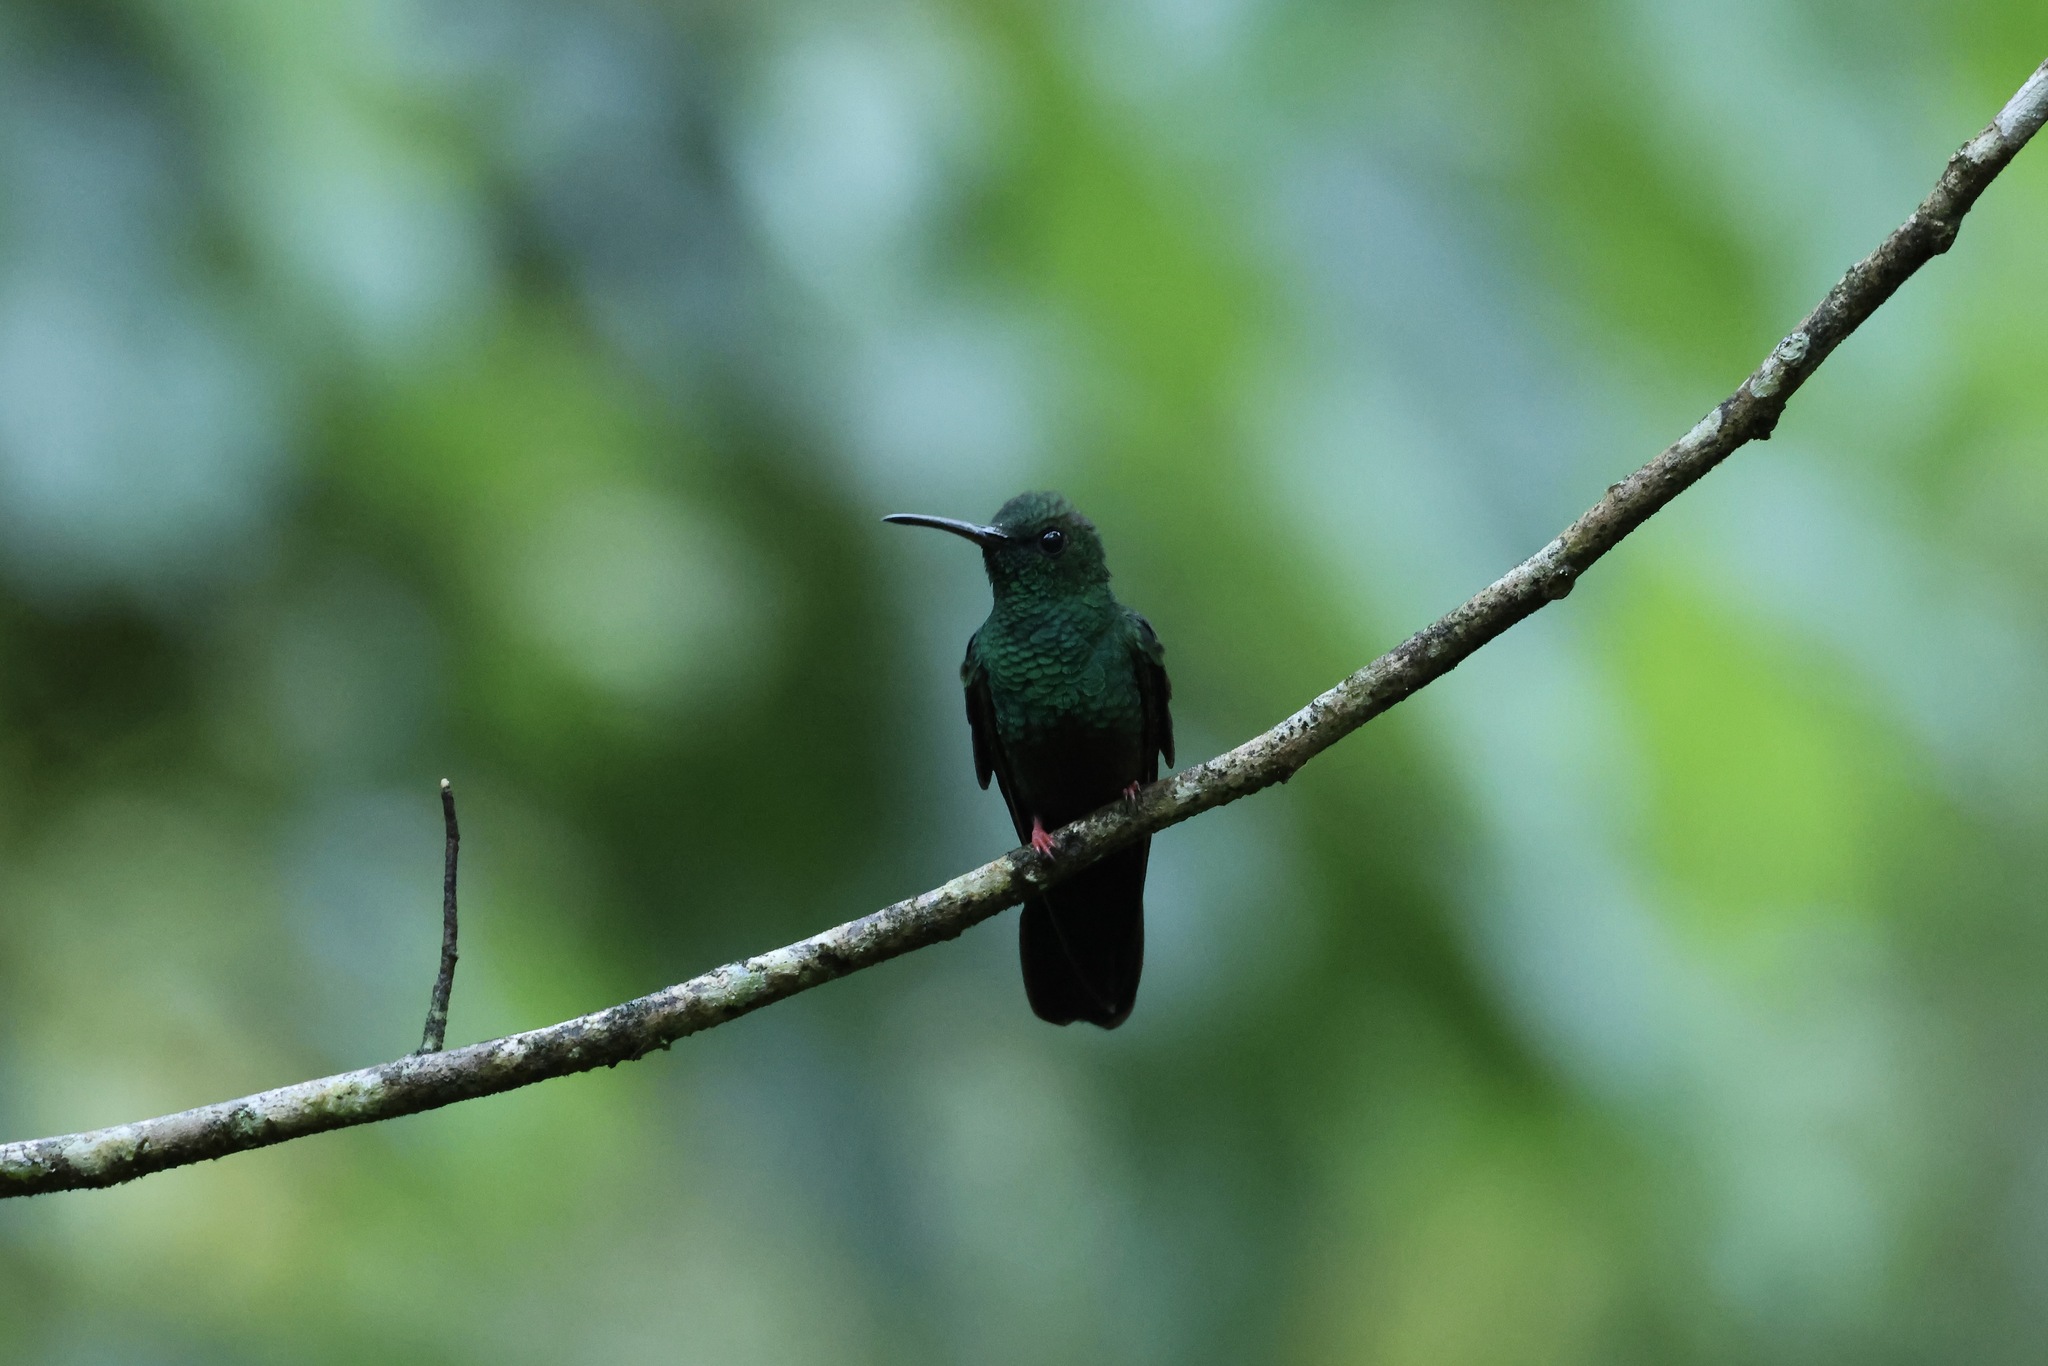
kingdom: Animalia
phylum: Chordata
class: Aves
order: Apodiformes
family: Trochilidae
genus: Chalybura
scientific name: Chalybura urochrysia
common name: Bronze-tailed plumeleteer
